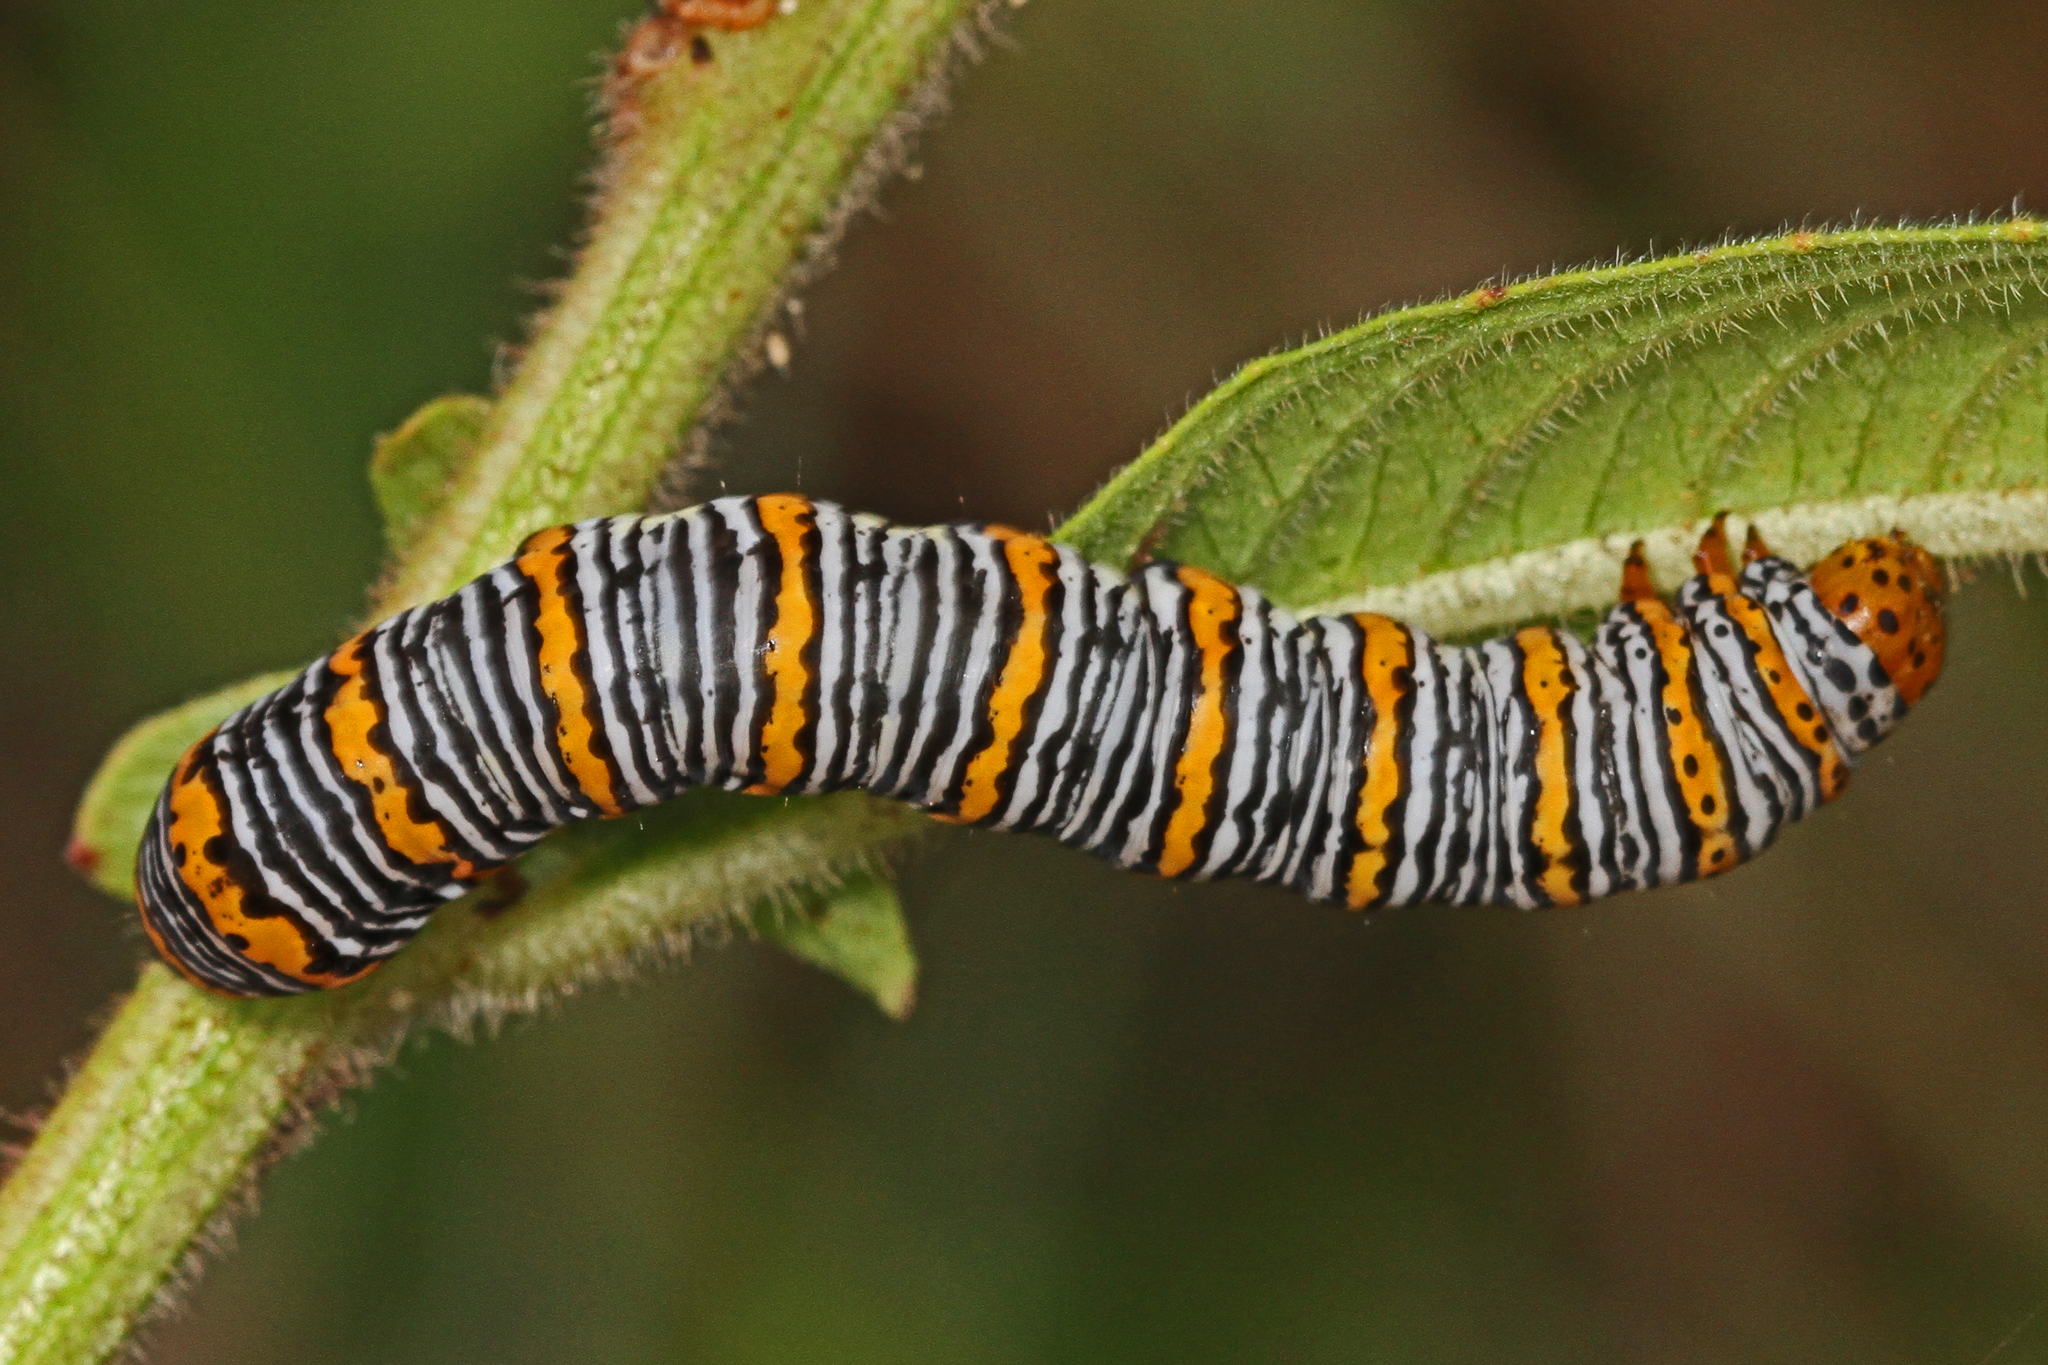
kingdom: Animalia
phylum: Arthropoda
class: Insecta
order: Lepidoptera
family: Noctuidae
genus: Eudryas
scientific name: Eudryas unio
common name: Pearly wood-nymph
